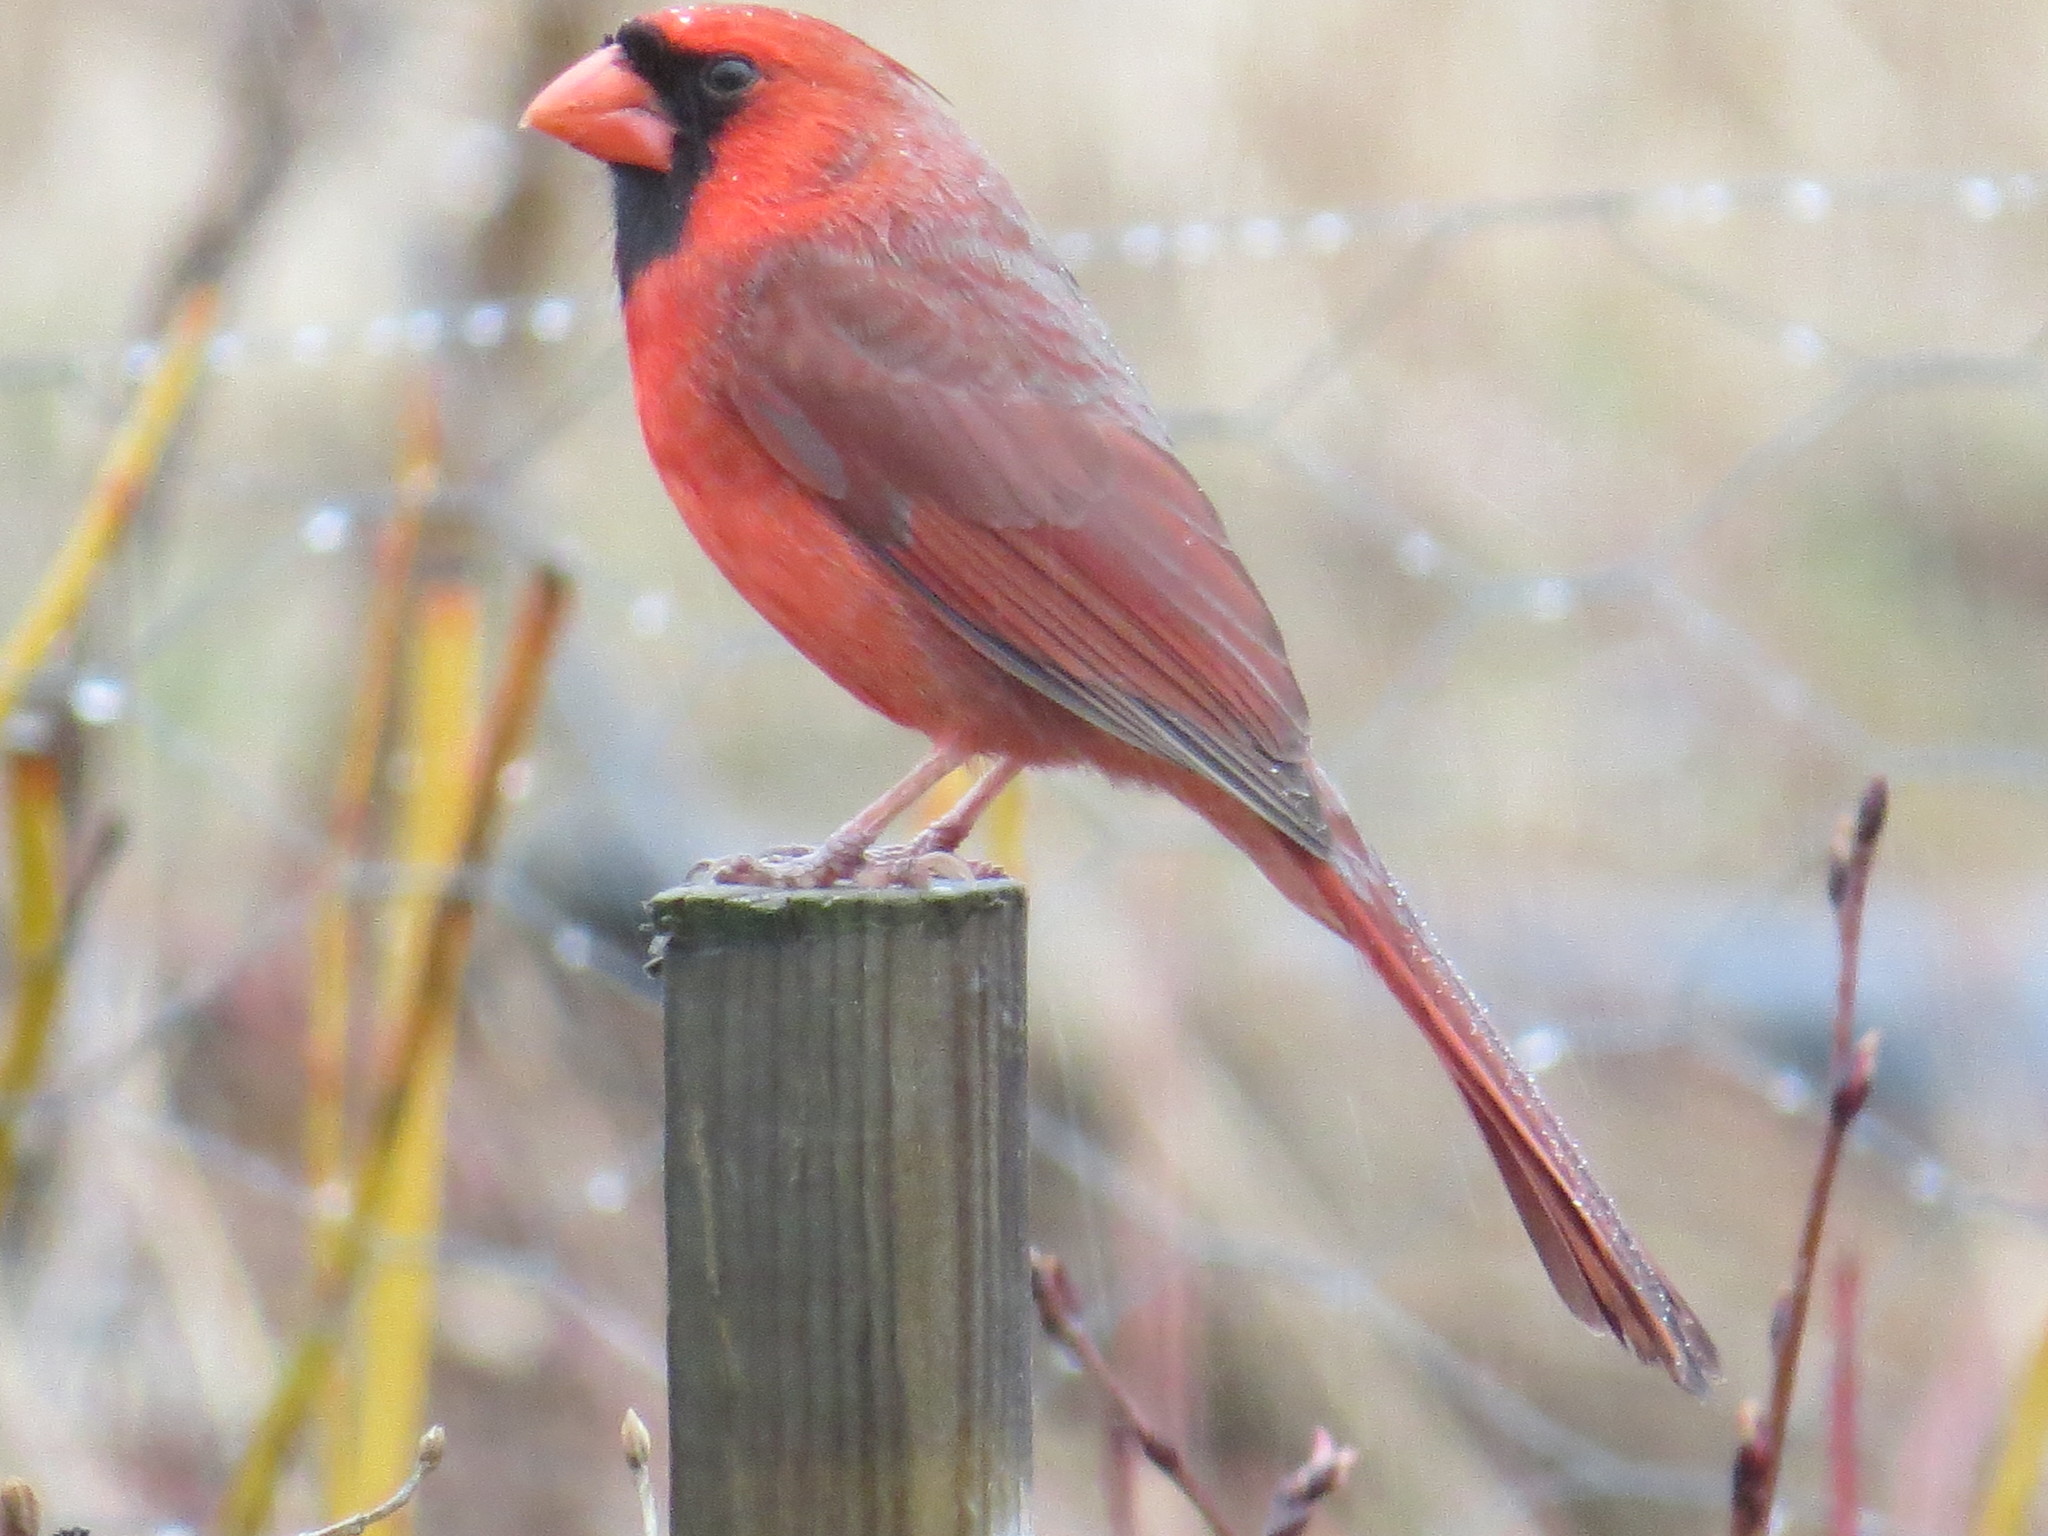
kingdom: Animalia
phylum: Chordata
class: Aves
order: Passeriformes
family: Cardinalidae
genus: Cardinalis
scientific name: Cardinalis cardinalis
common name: Northern cardinal
